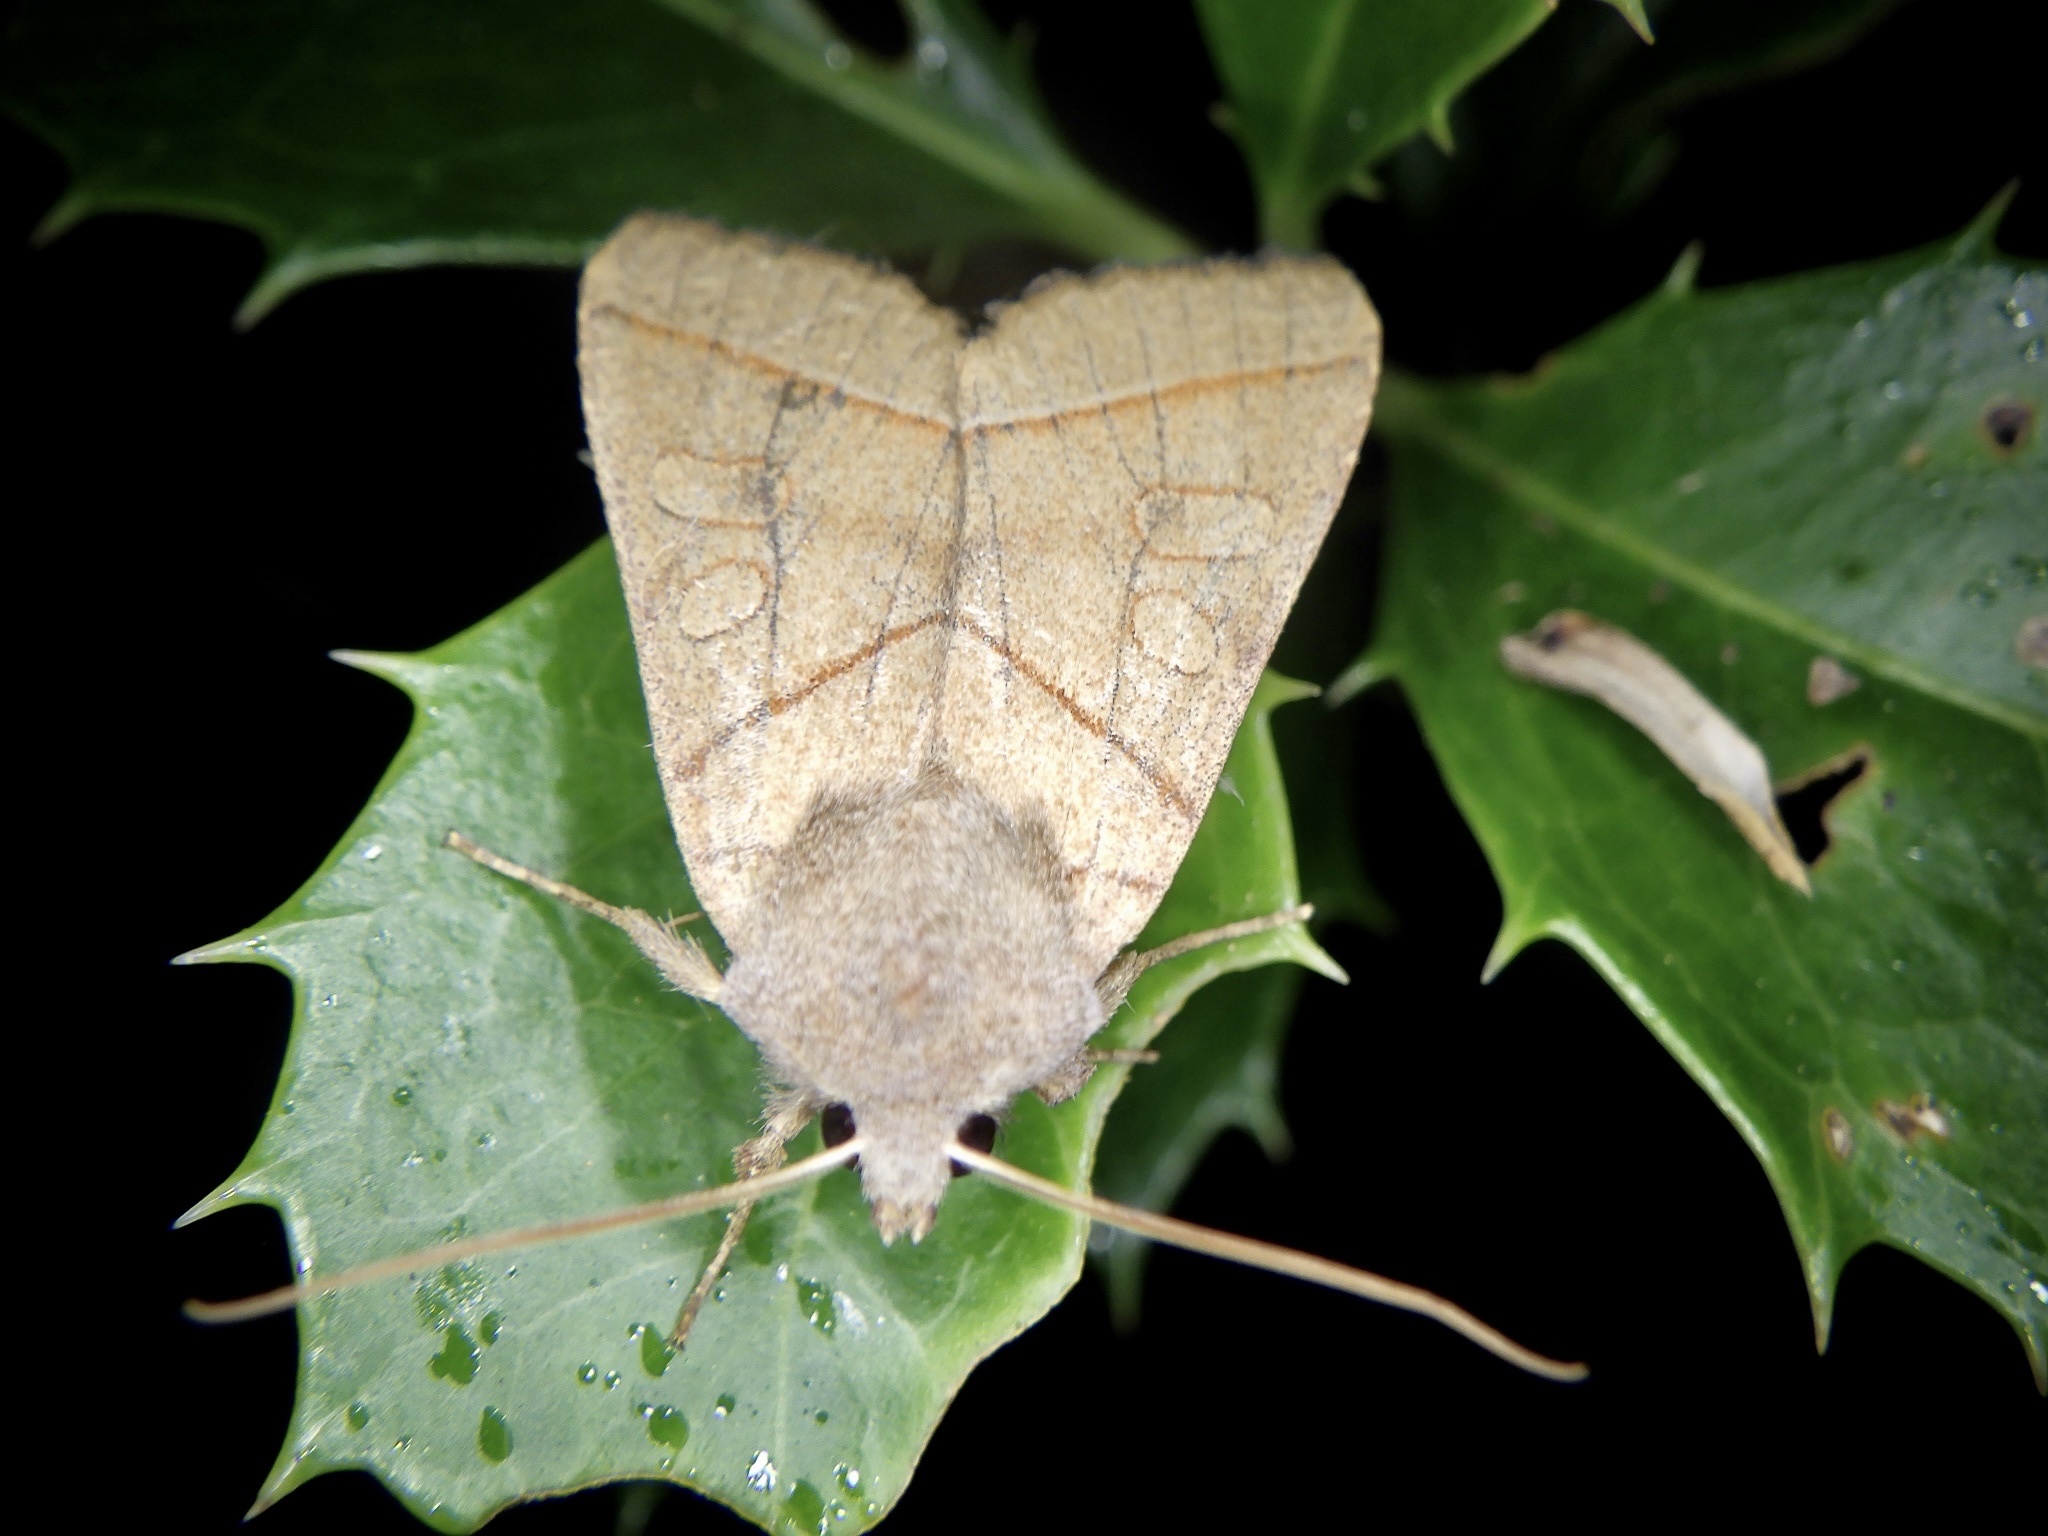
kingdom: Animalia
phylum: Arthropoda
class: Insecta
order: Lepidoptera
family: Noctuidae
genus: Telorta
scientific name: Telorta divergens
